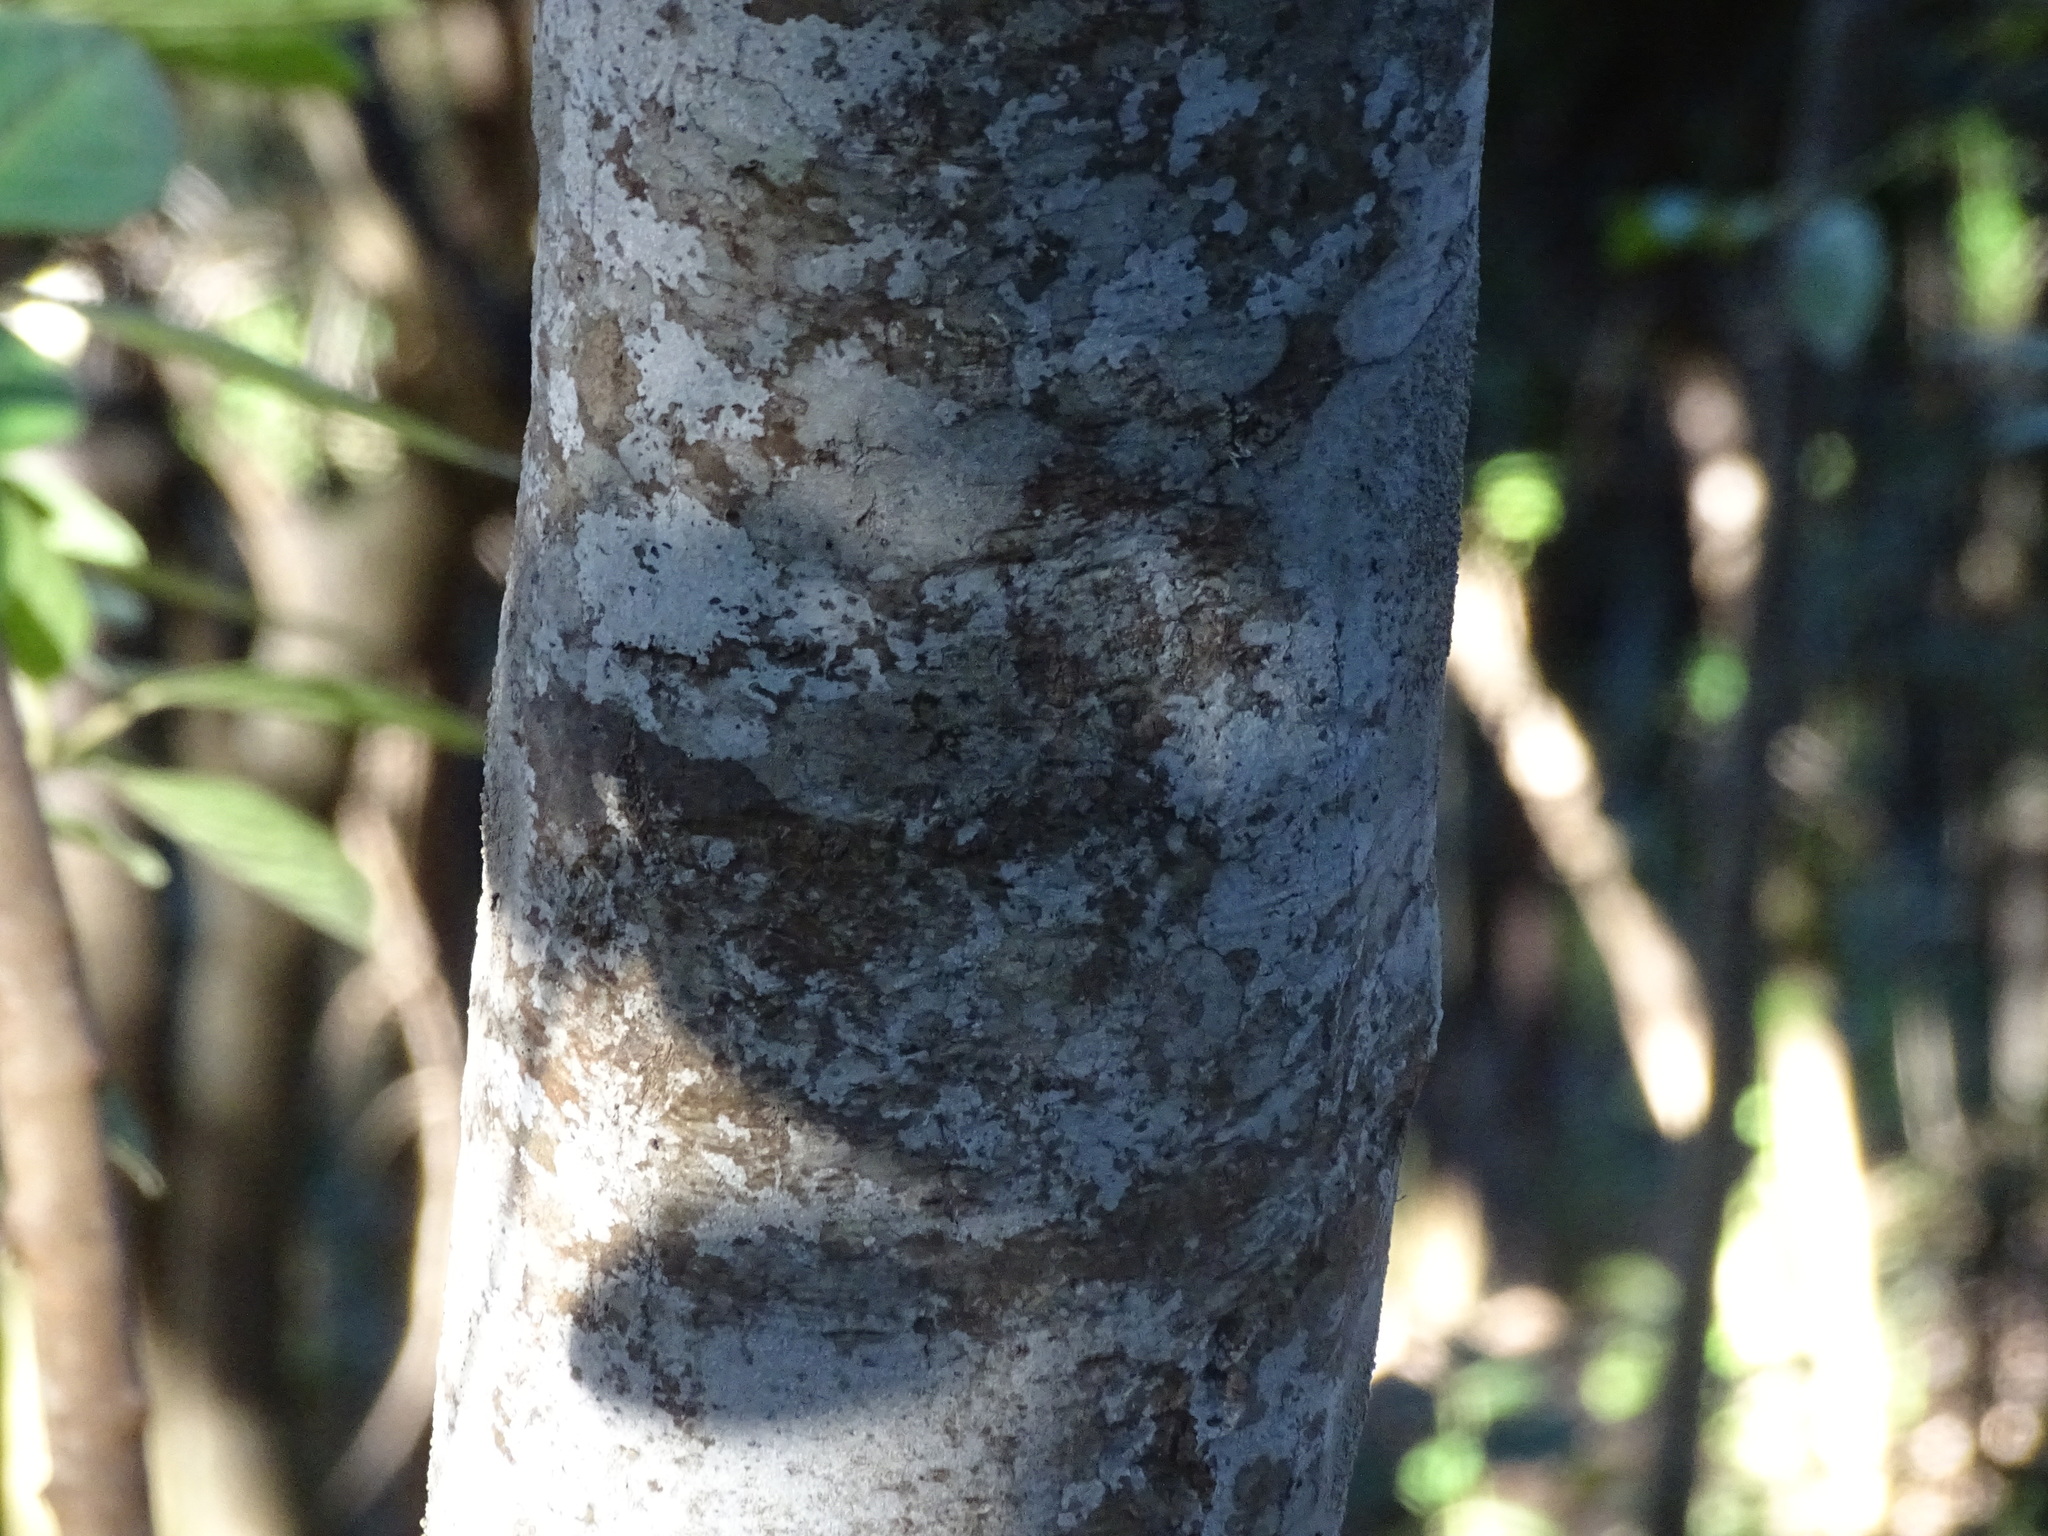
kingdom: Plantae
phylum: Tracheophyta
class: Magnoliopsida
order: Aquifoliales
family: Aquifoliaceae
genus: Ilex
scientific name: Ilex canariensis
